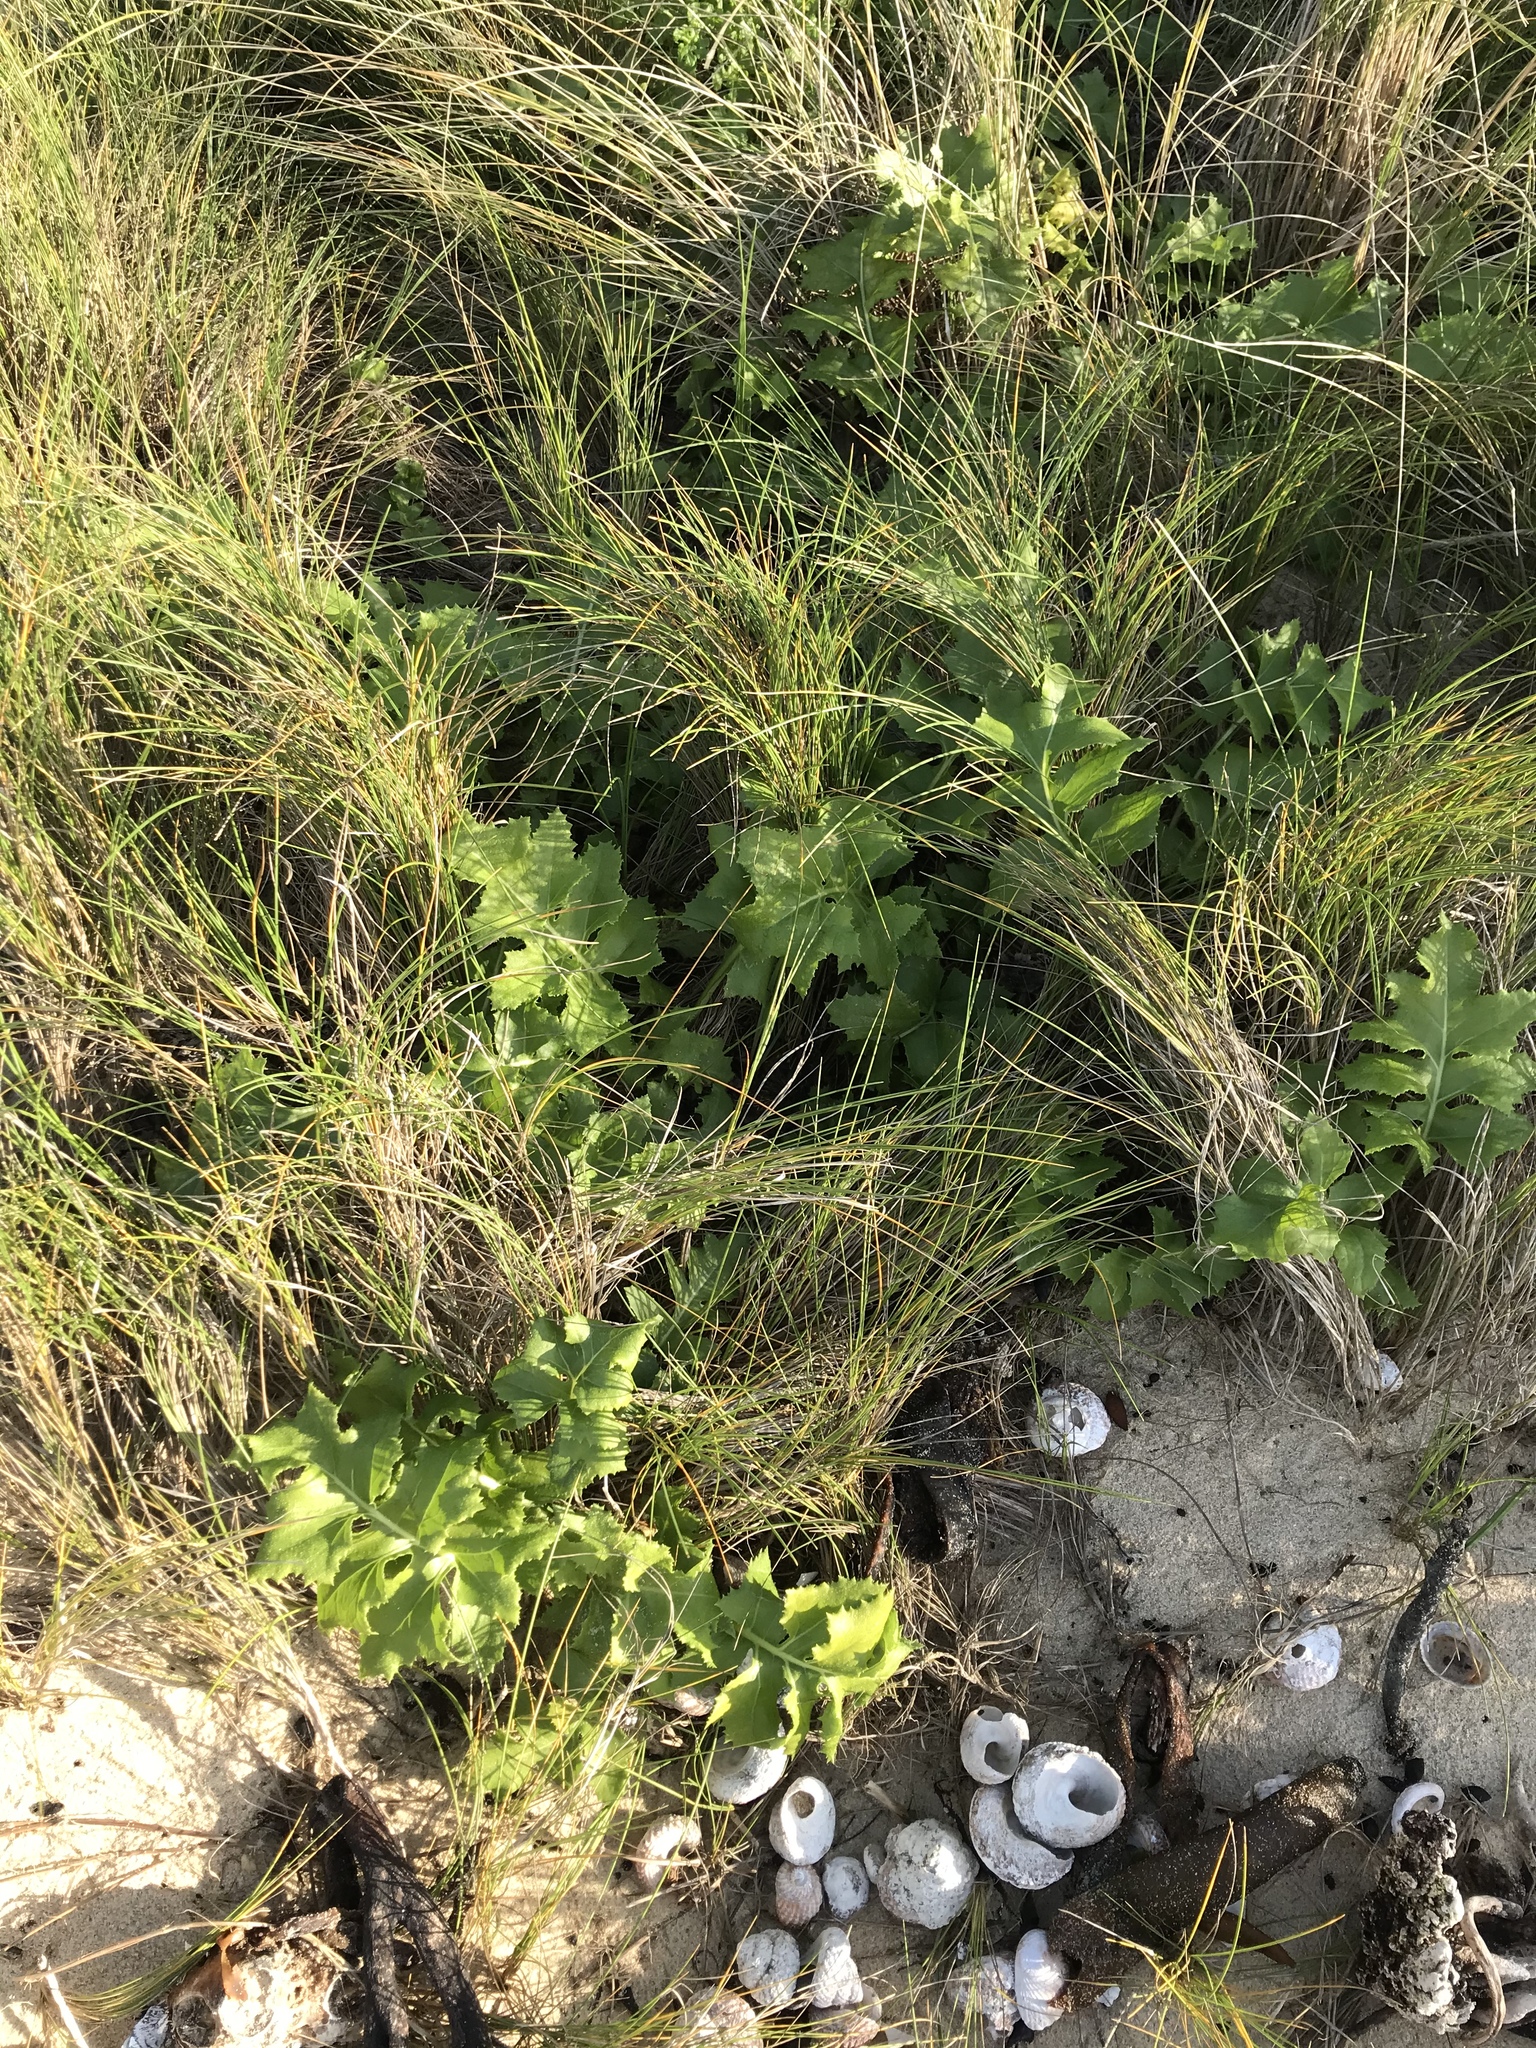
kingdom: Plantae
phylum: Tracheophyta
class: Magnoliopsida
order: Asterales
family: Asteraceae
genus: Sonchus
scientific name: Sonchus grandifolius
